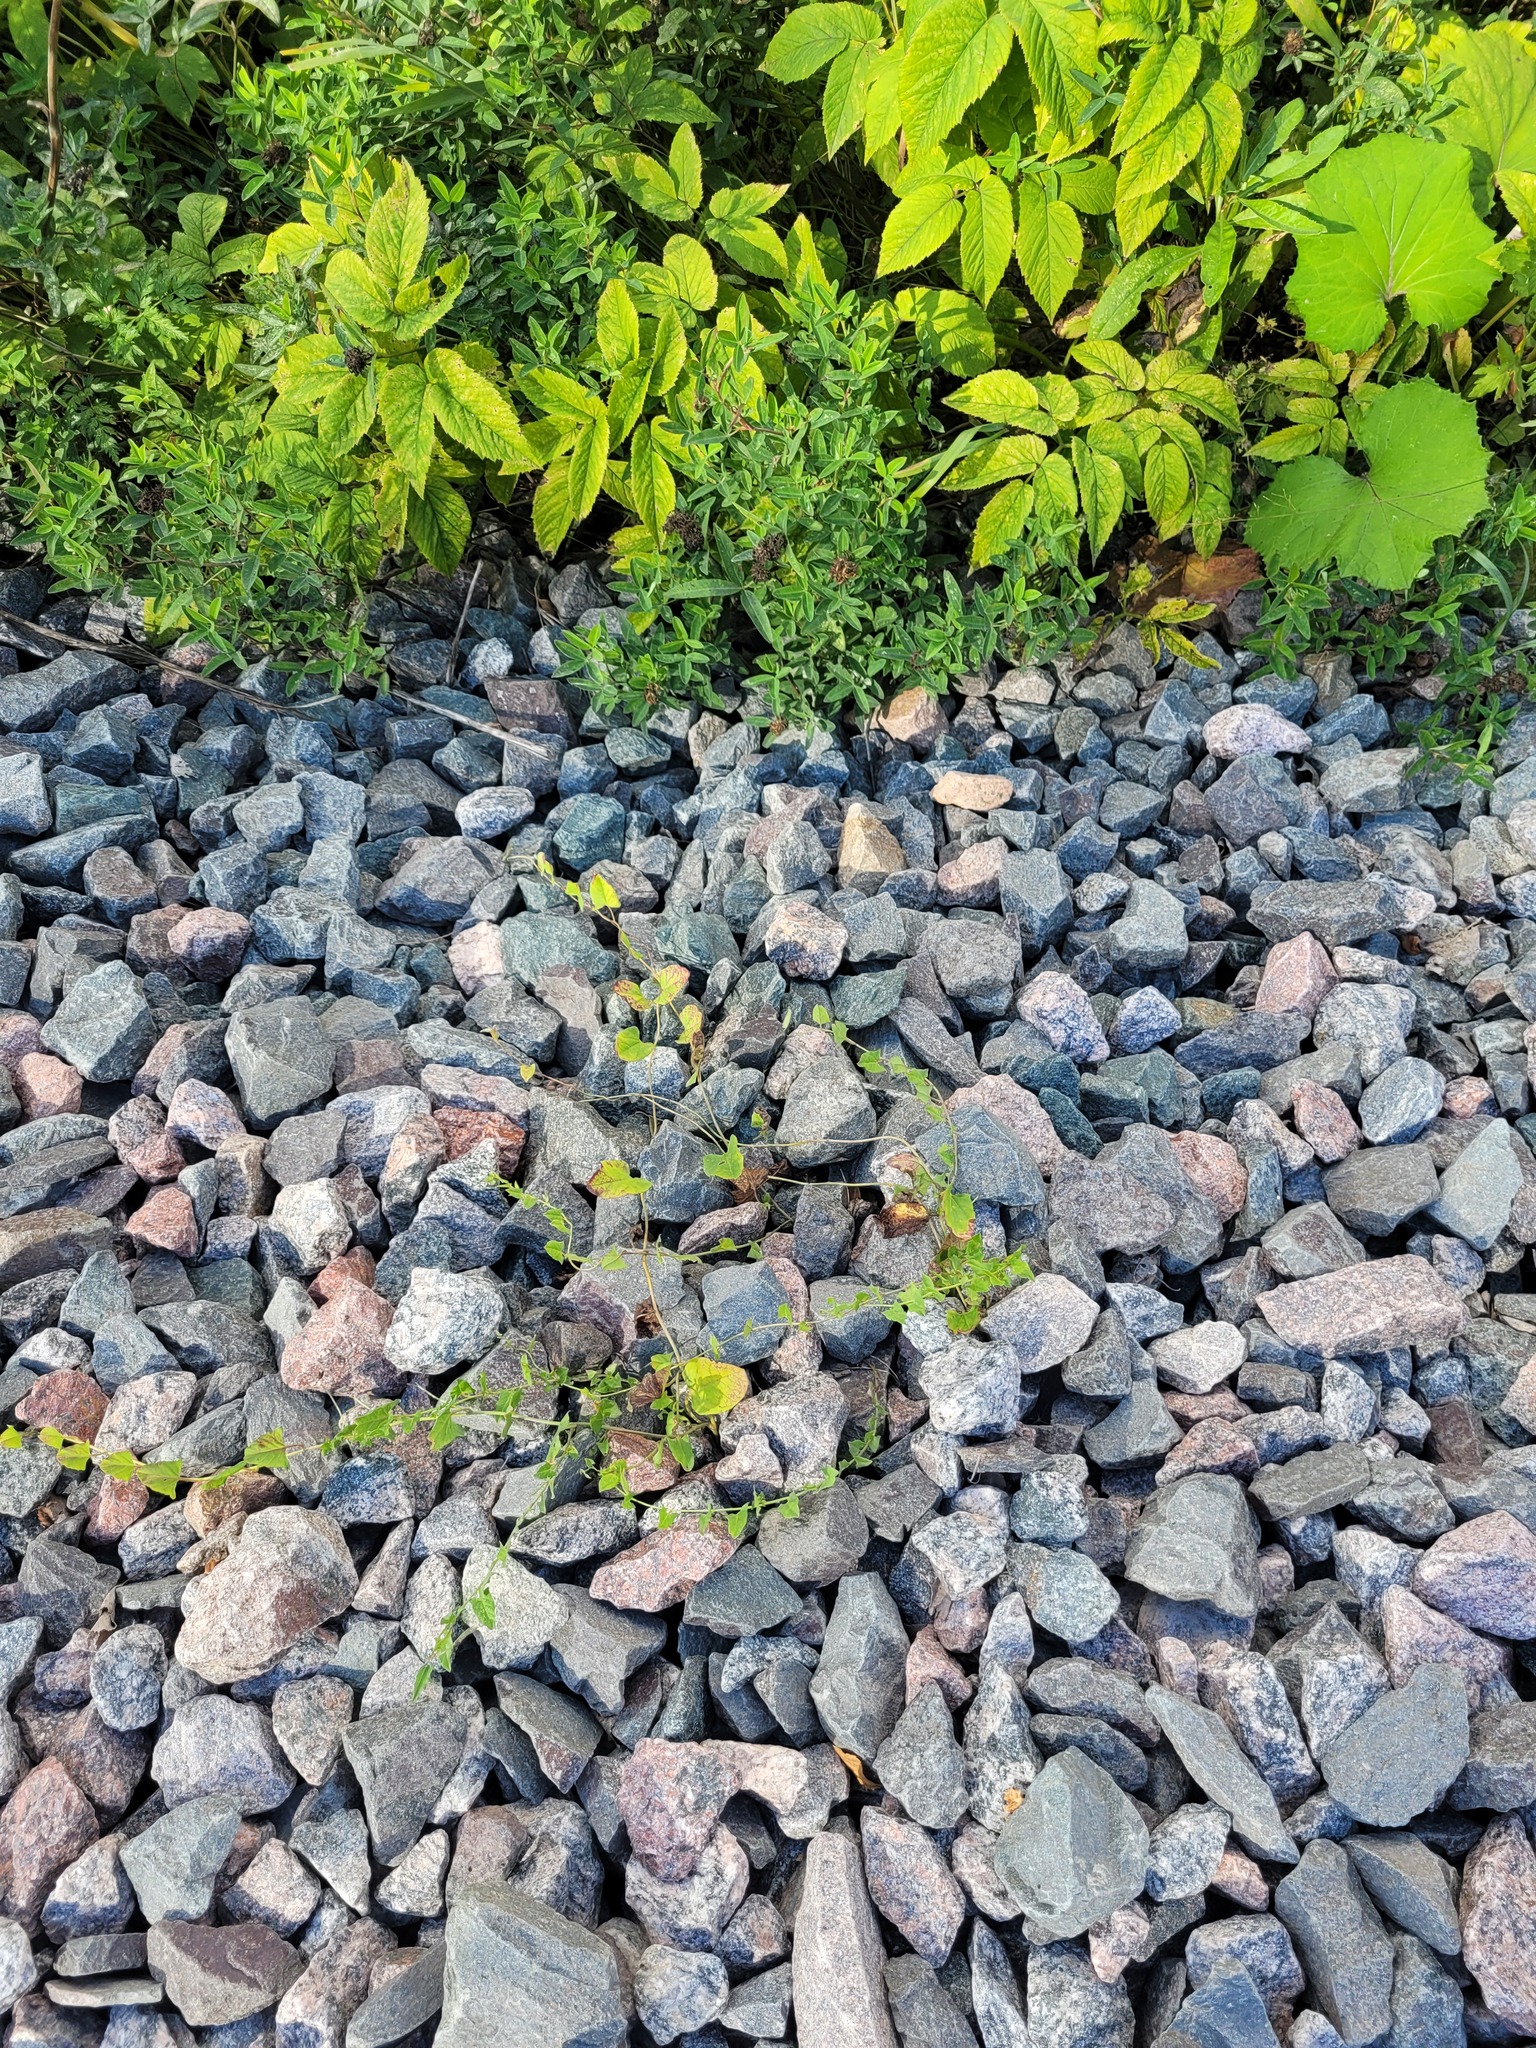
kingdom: Plantae
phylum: Tracheophyta
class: Magnoliopsida
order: Solanales
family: Convolvulaceae
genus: Convolvulus
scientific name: Convolvulus arvensis
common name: Field bindweed
